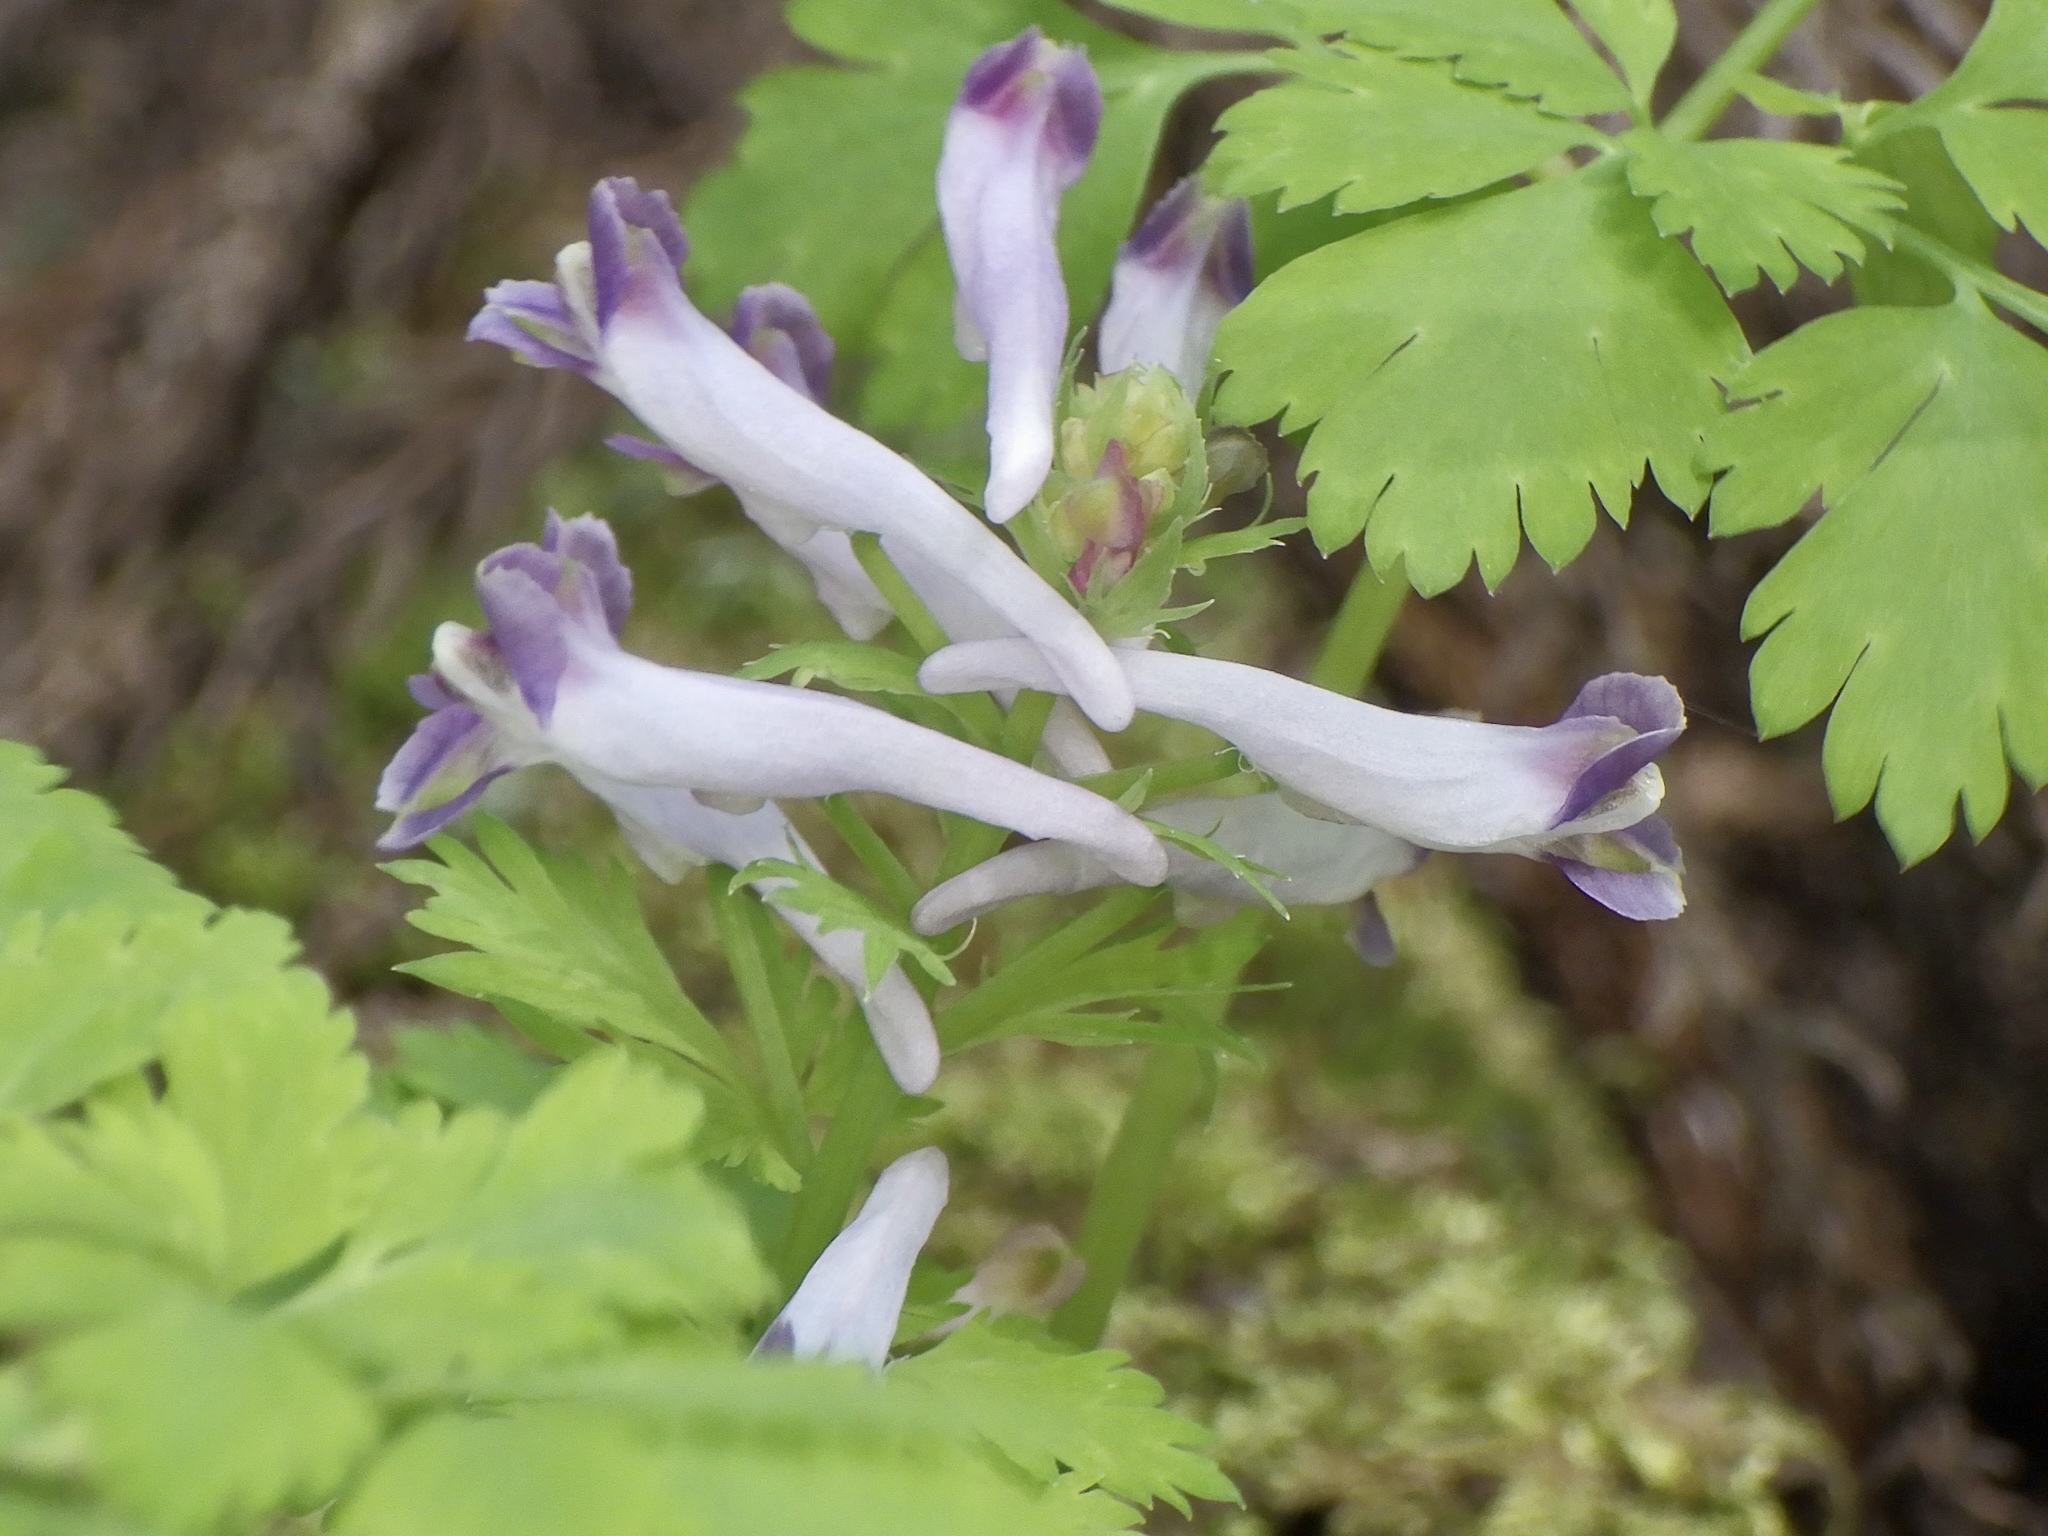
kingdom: Plantae
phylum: Tracheophyta
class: Magnoliopsida
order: Ranunculales
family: Papaveraceae
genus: Corydalis
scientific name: Corydalis incisa
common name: Incised fumewort
